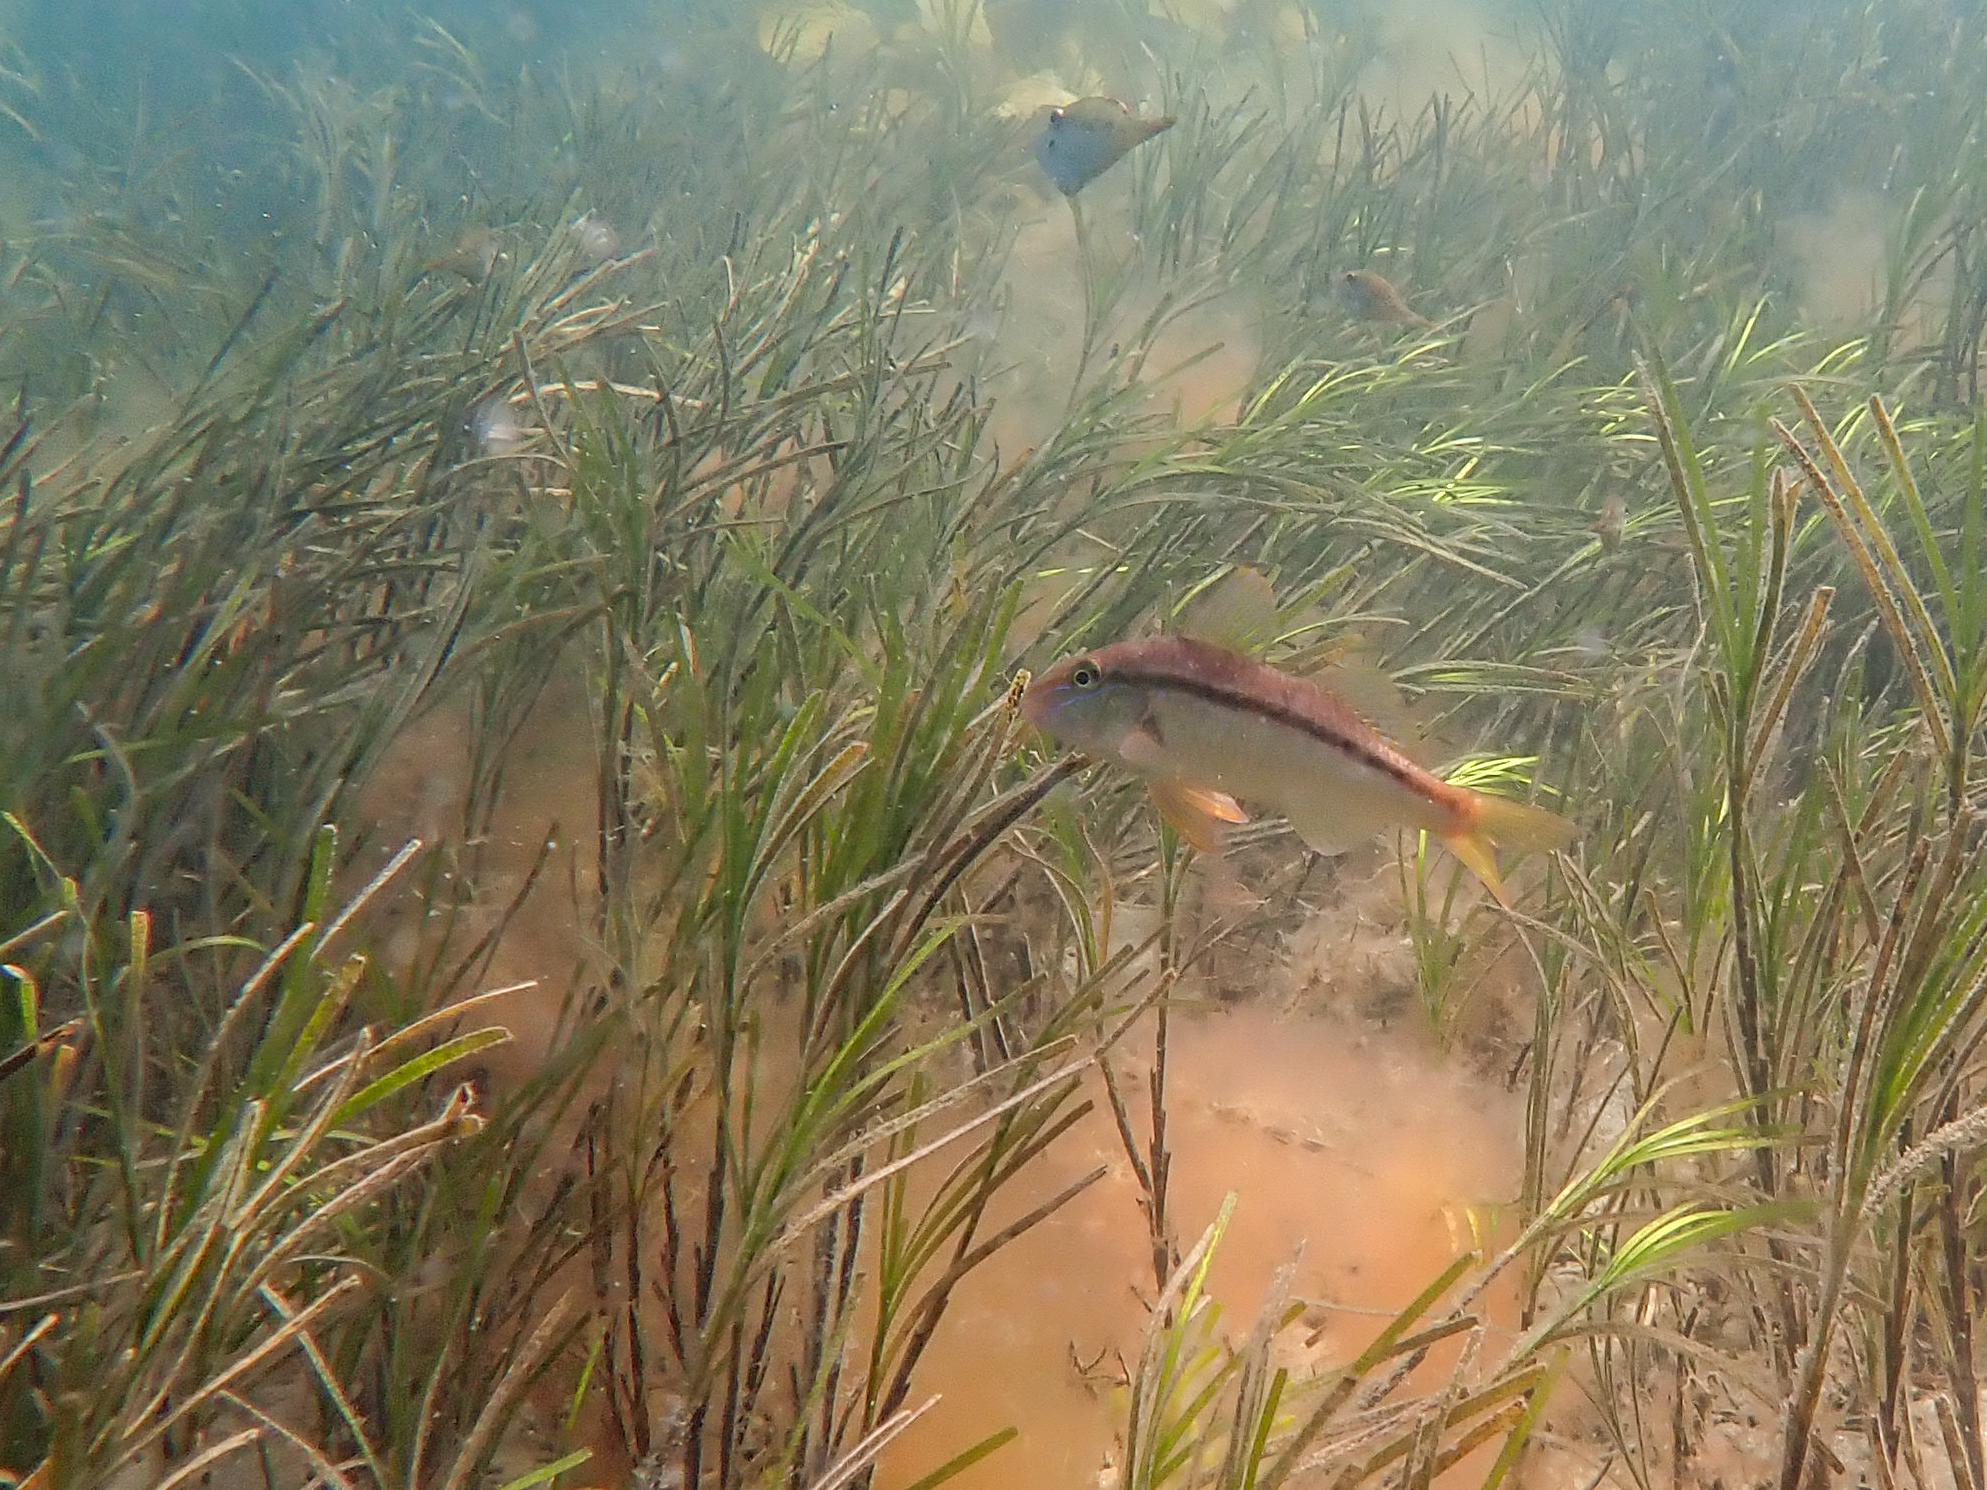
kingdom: Animalia
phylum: Chordata
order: Perciformes
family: Mullidae
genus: Upeneichthys
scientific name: Upeneichthys vlamingii
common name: Red mullet
